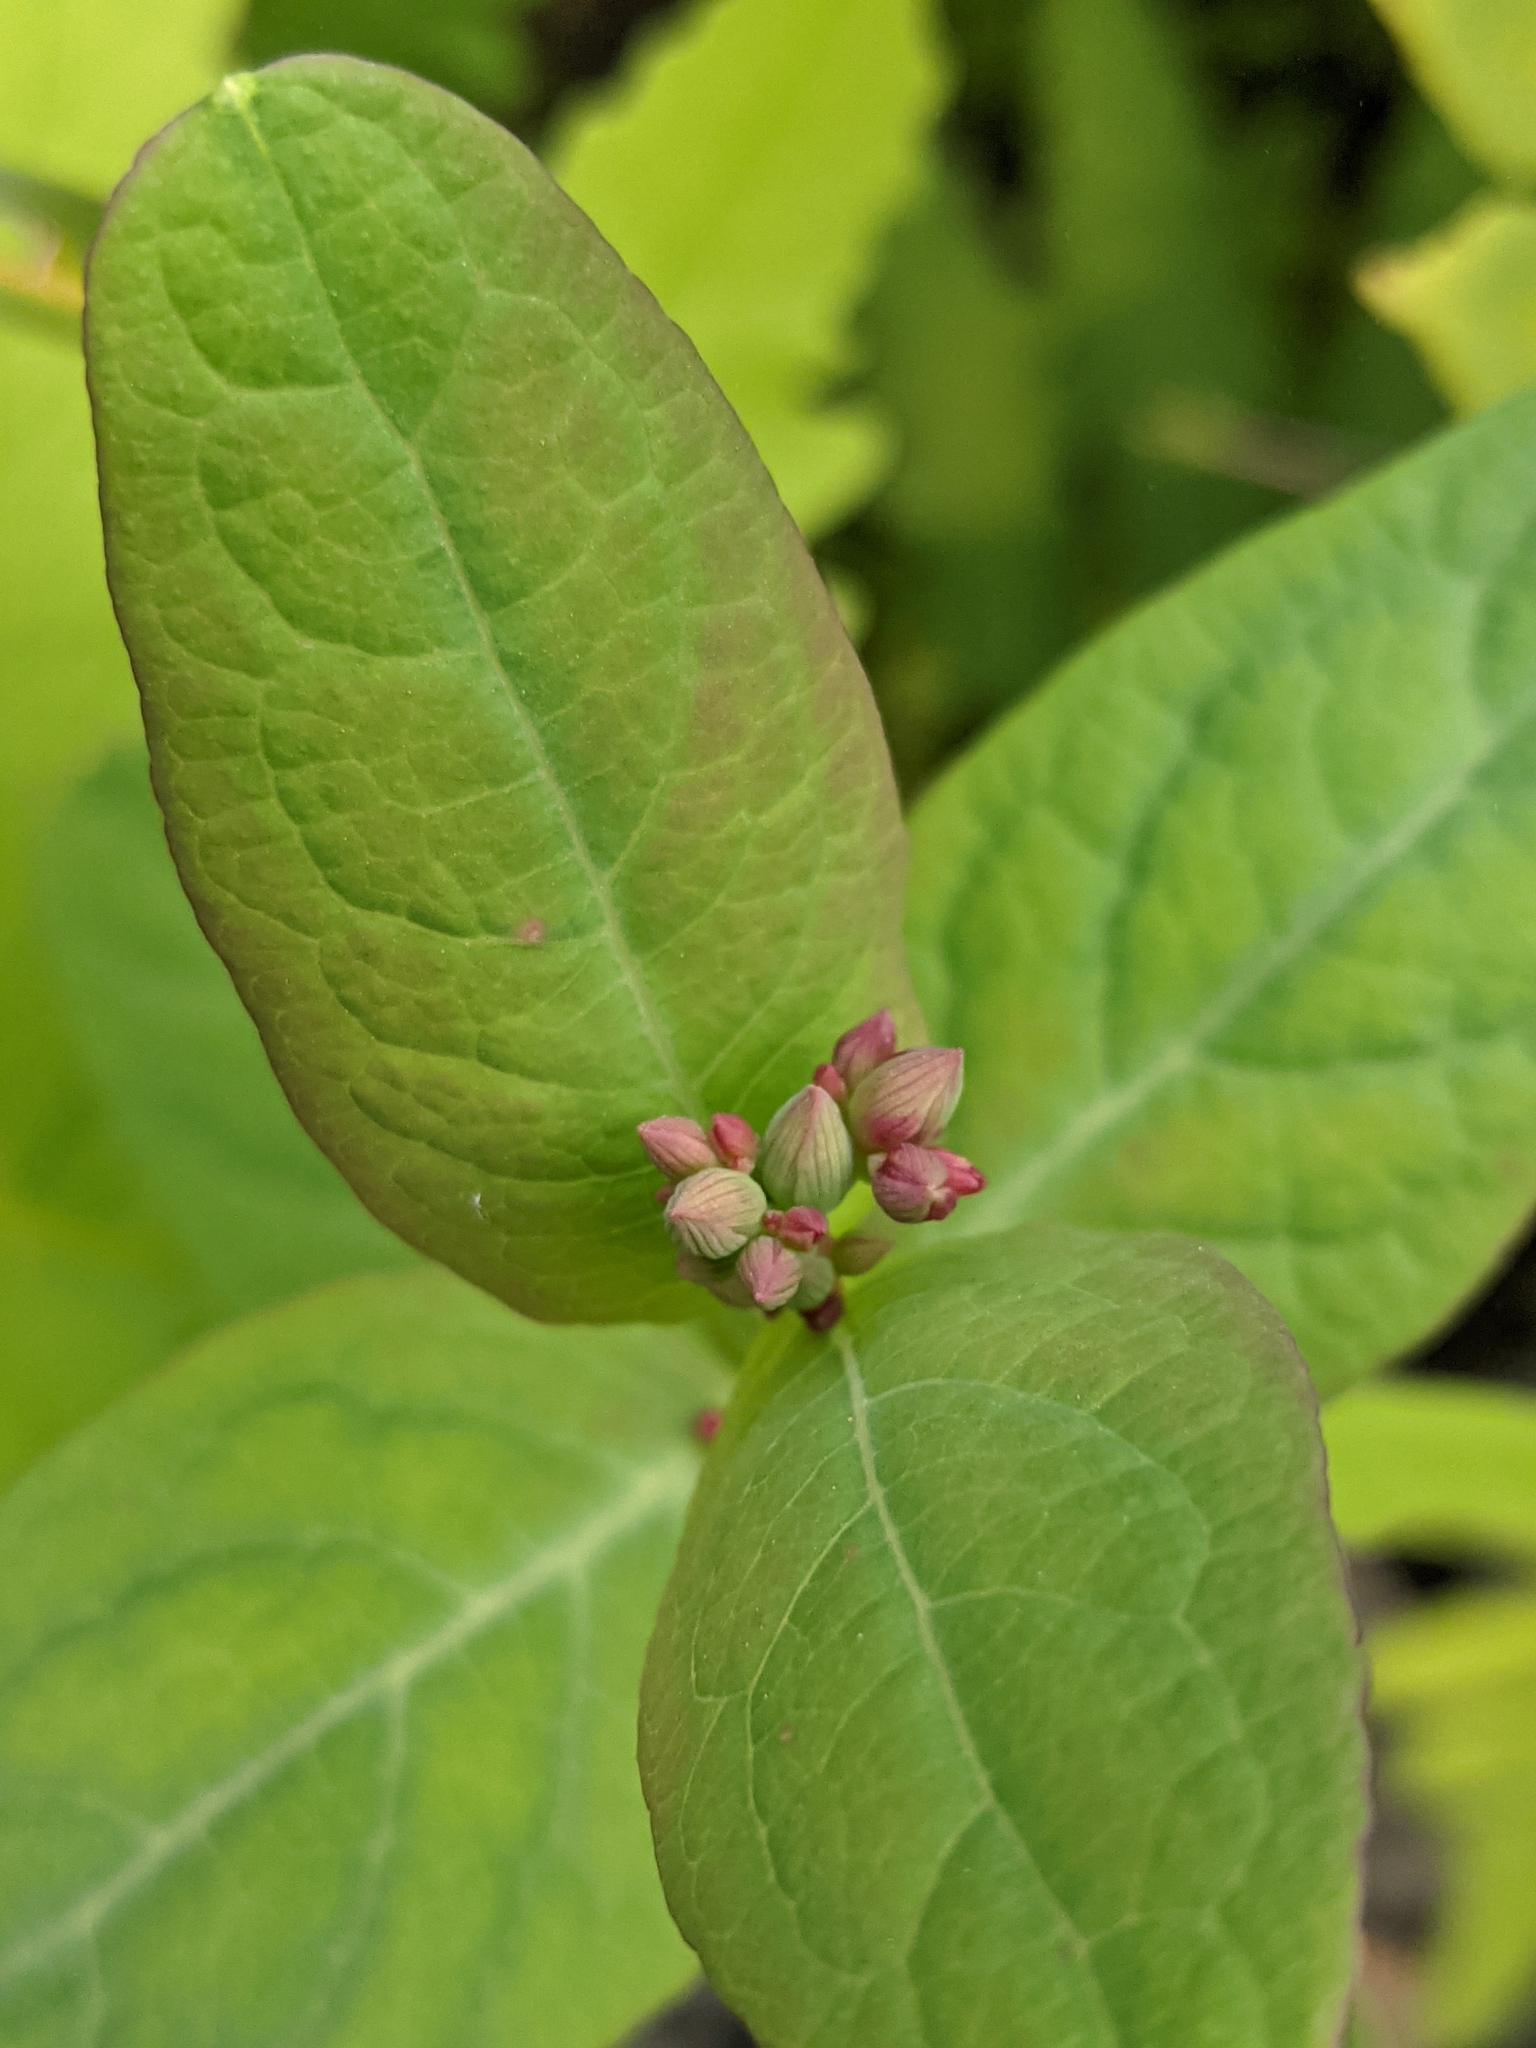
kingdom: Plantae
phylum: Tracheophyta
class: Magnoliopsida
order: Malpighiales
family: Hypericaceae
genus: Triadenum
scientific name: Triadenum fraseri
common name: Fraser's marsh st. johnswort
